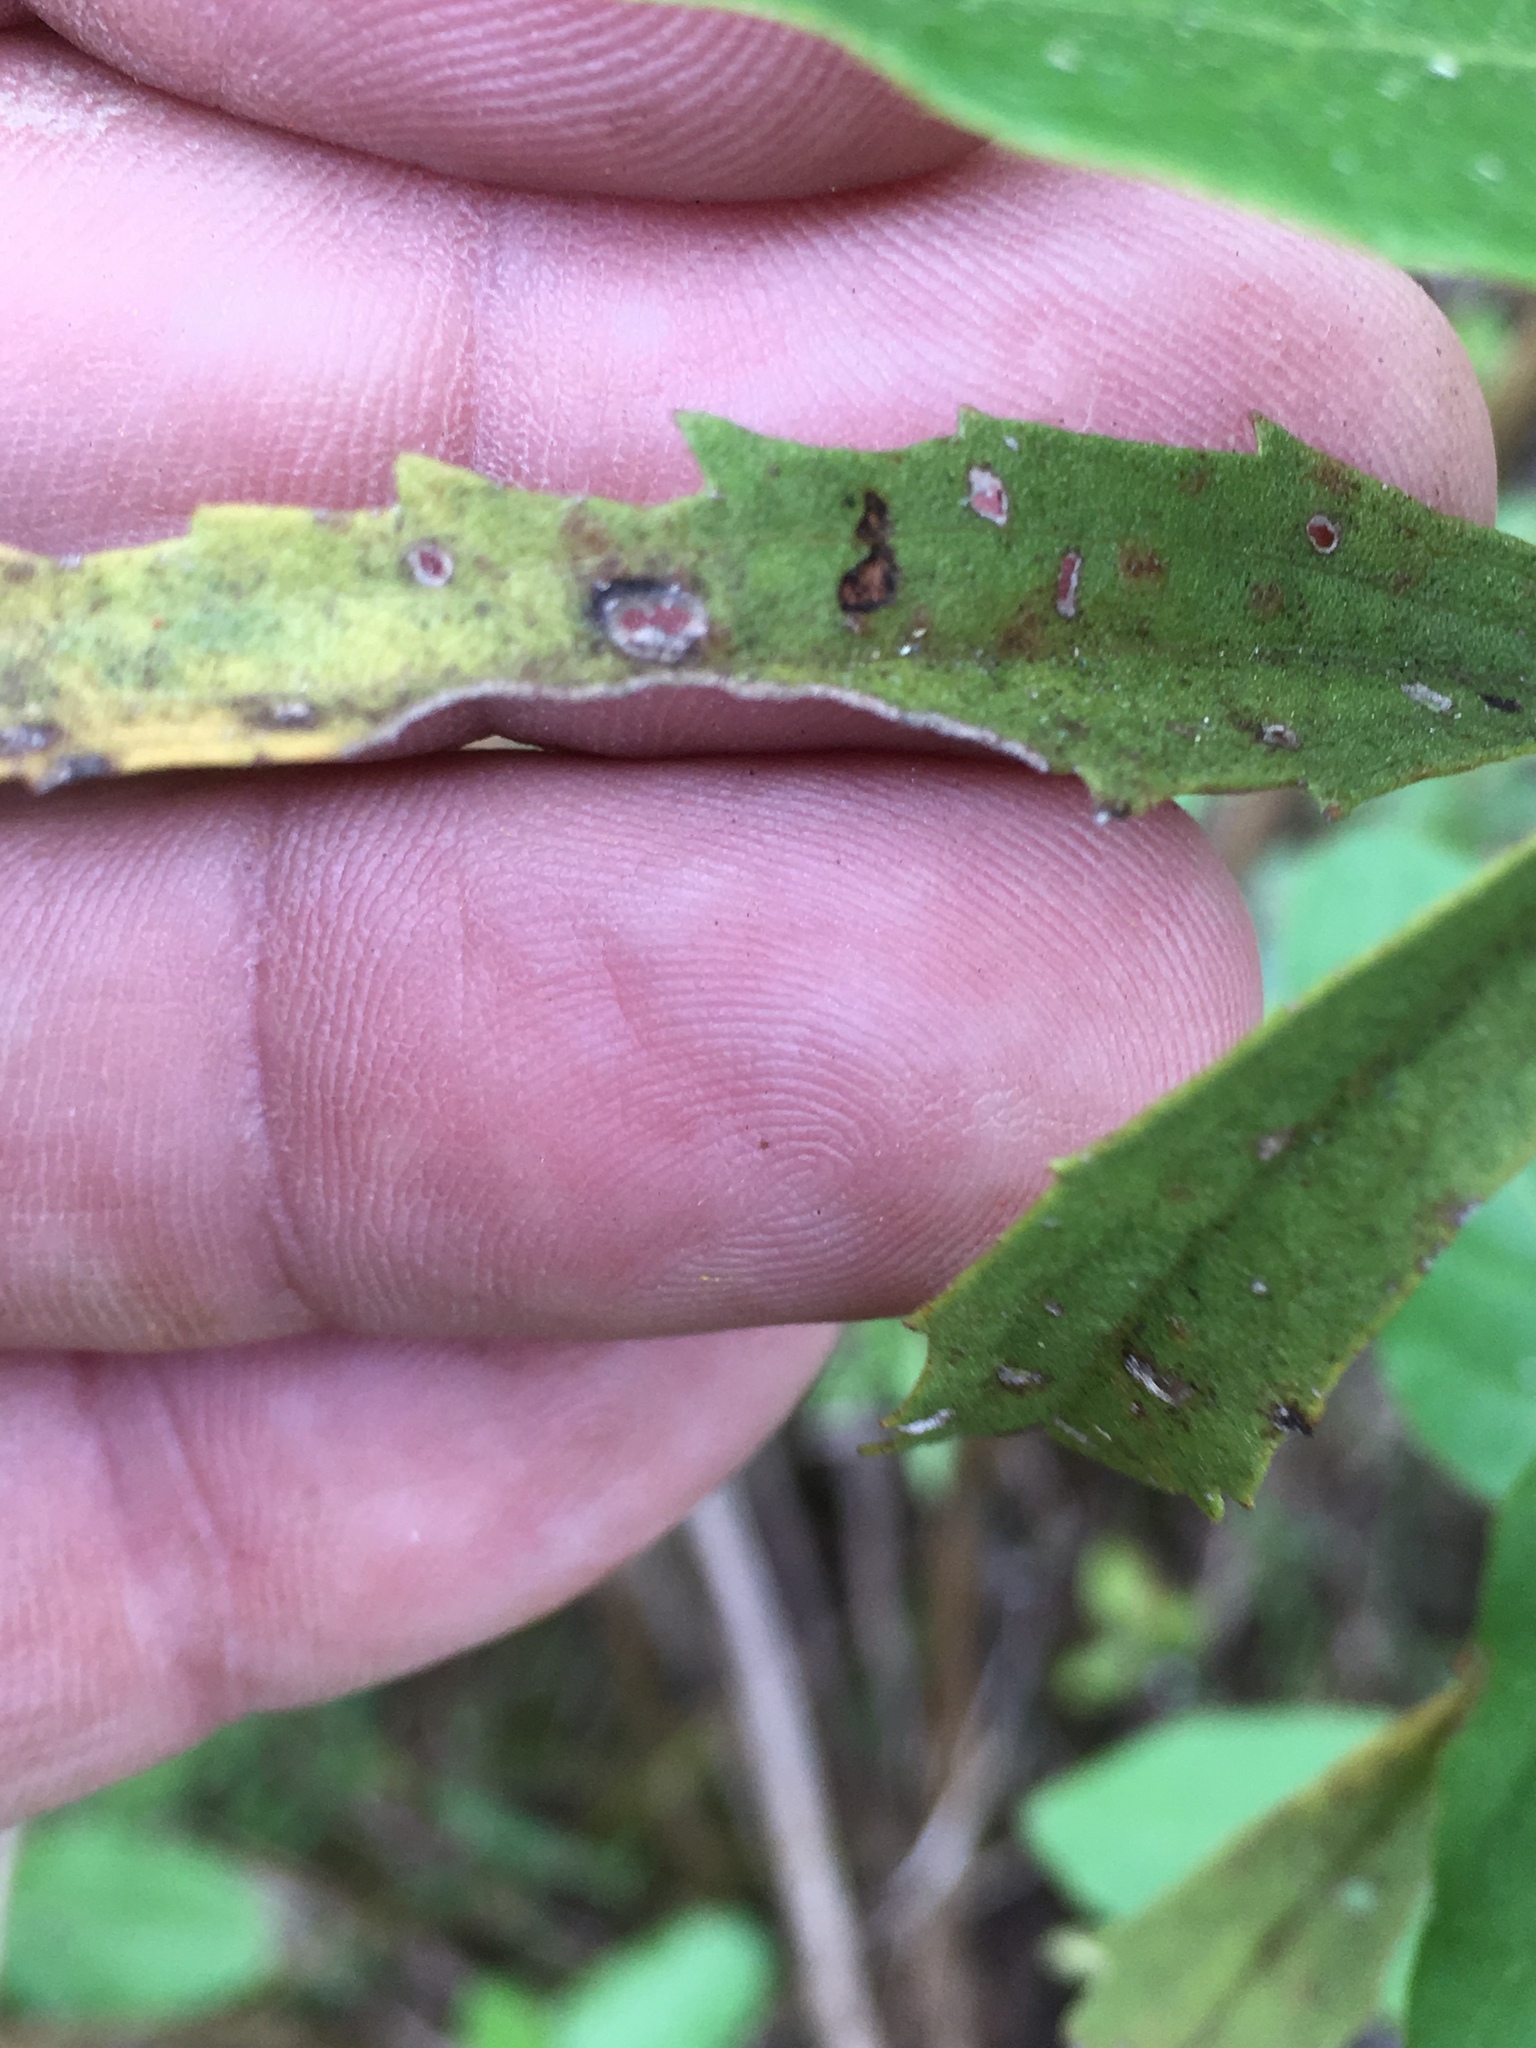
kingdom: Plantae
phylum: Tracheophyta
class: Magnoliopsida
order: Asterales
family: Asteraceae
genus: Eupatorium
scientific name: Eupatorium torreyanum
